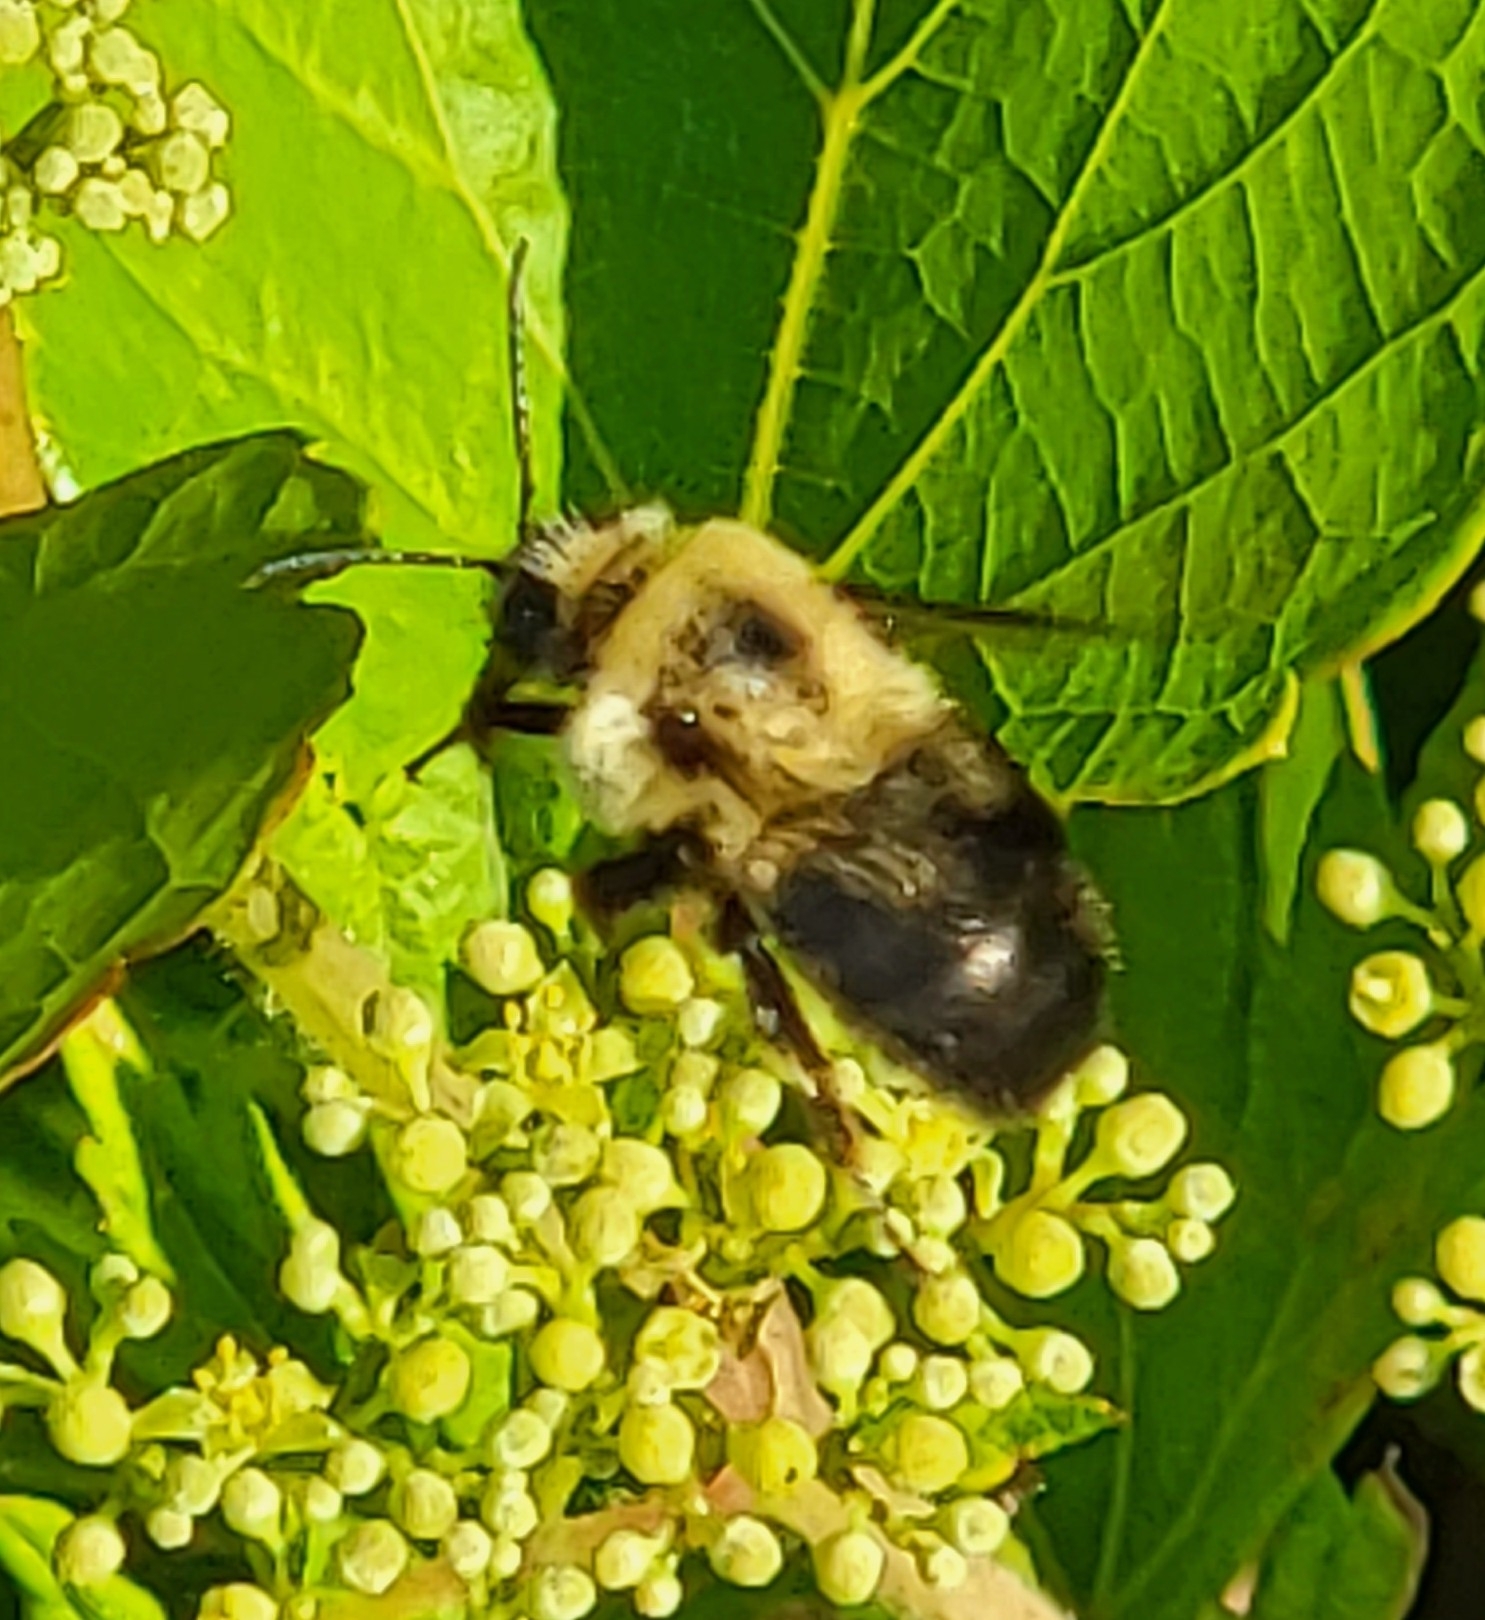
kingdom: Animalia
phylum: Arthropoda
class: Insecta
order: Hymenoptera
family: Apidae
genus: Bombus
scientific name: Bombus bimaculatus
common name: Two-spotted bumble bee
